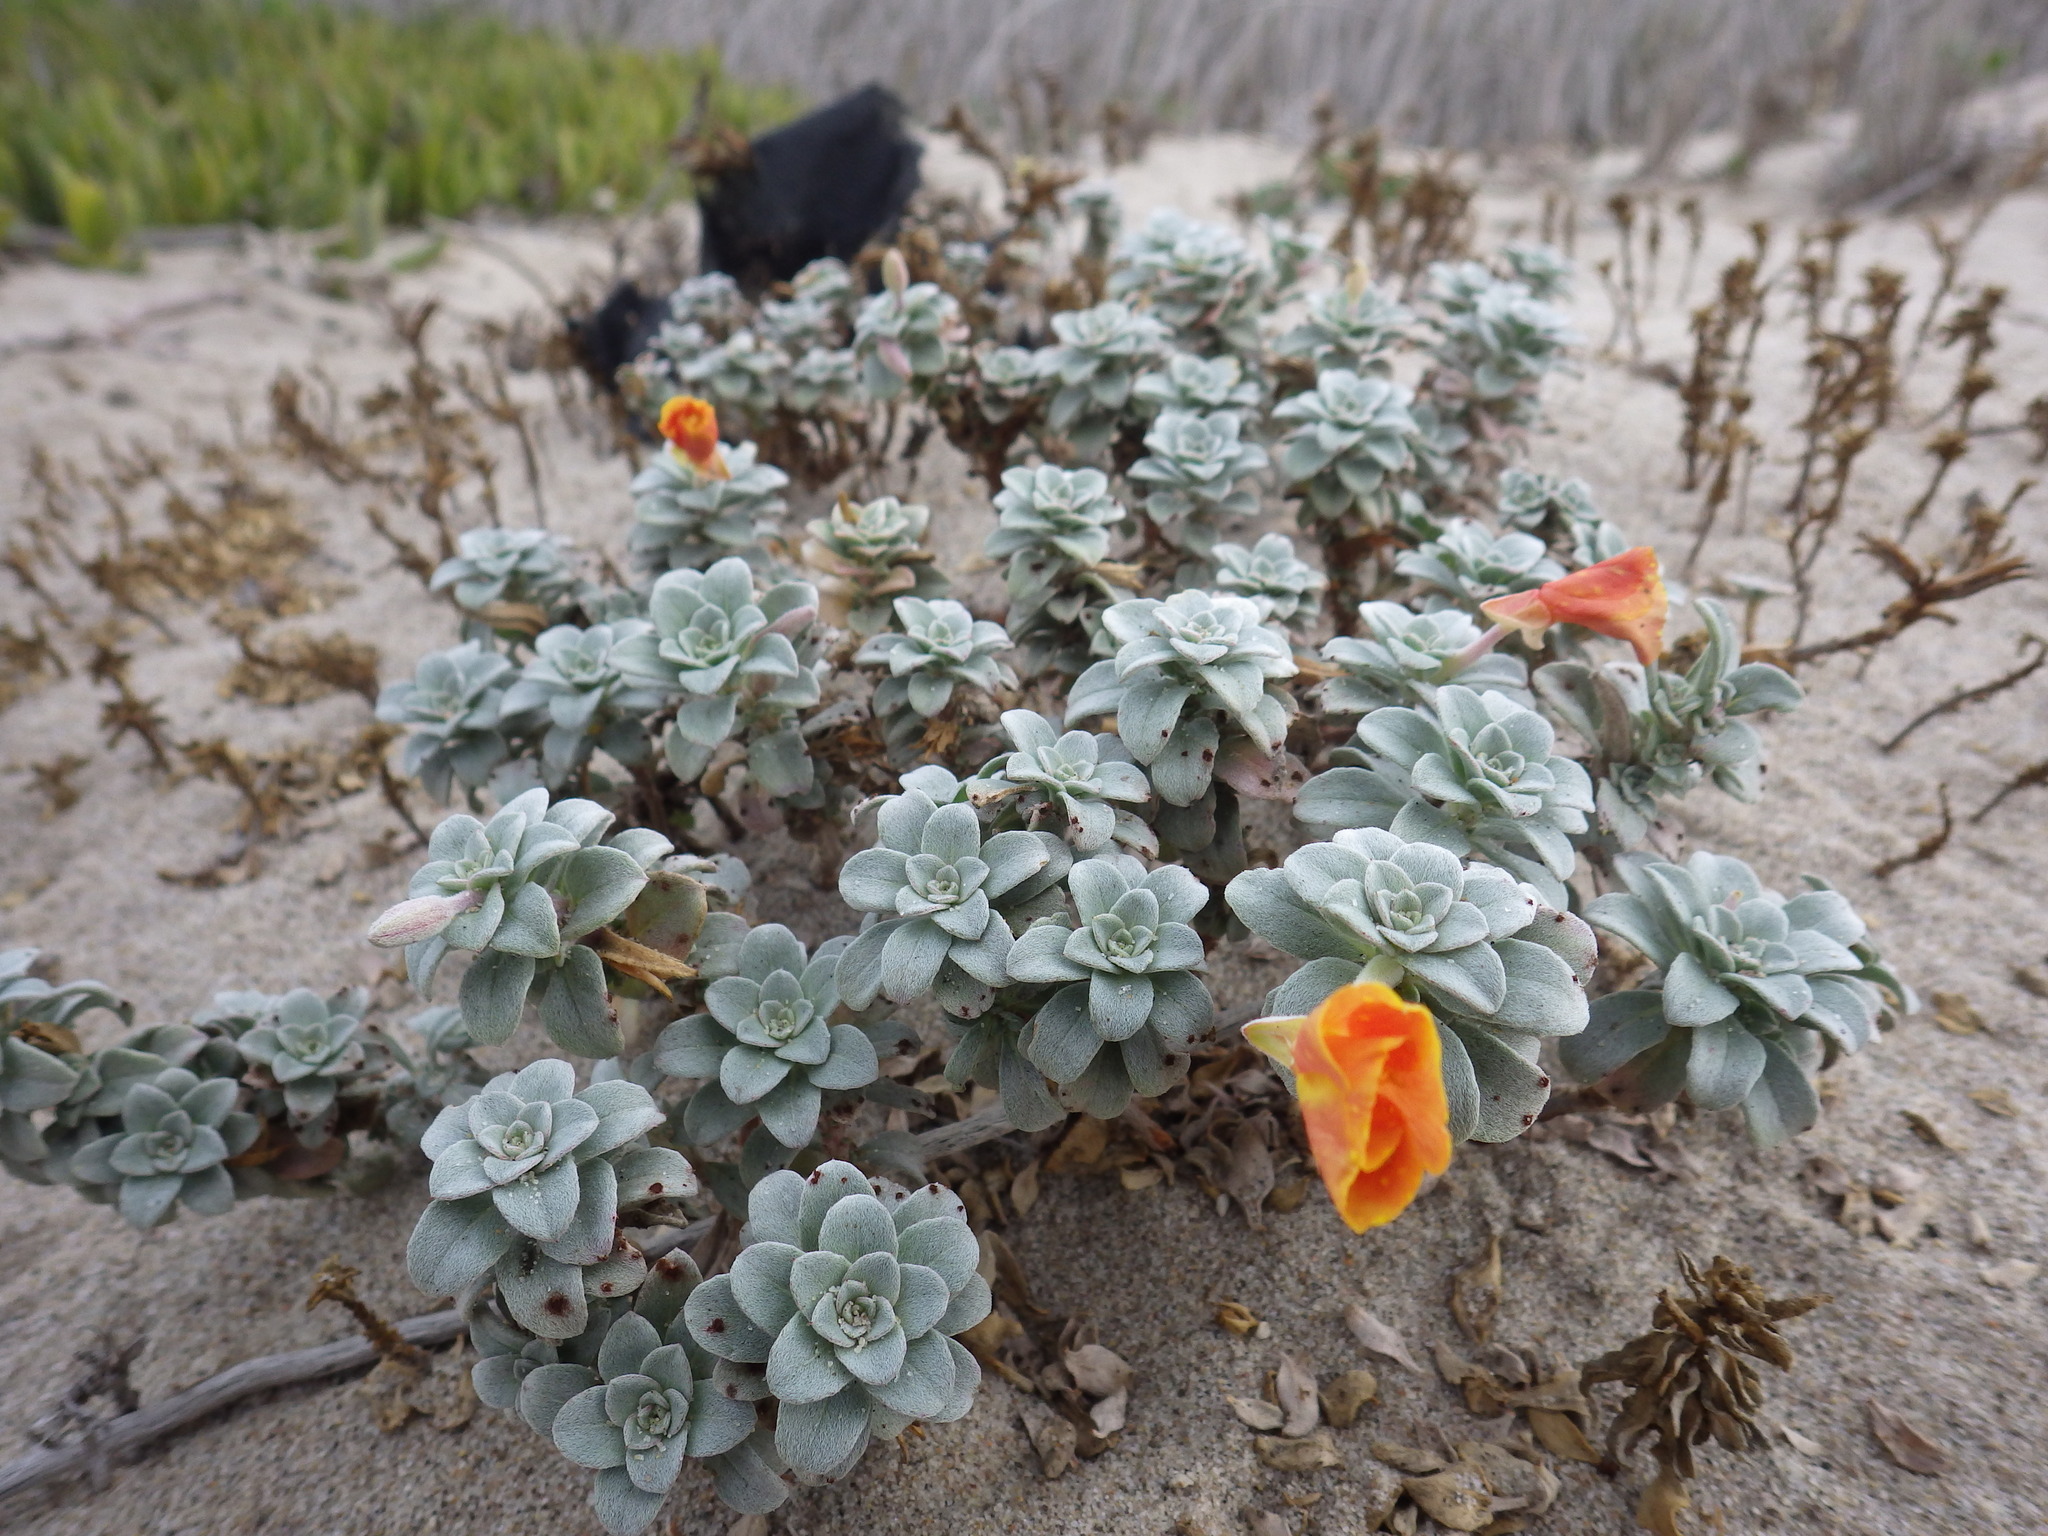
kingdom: Plantae
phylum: Tracheophyta
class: Magnoliopsida
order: Myrtales
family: Onagraceae
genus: Camissoniopsis
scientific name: Camissoniopsis cheiranthifolia
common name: Beach suncup
